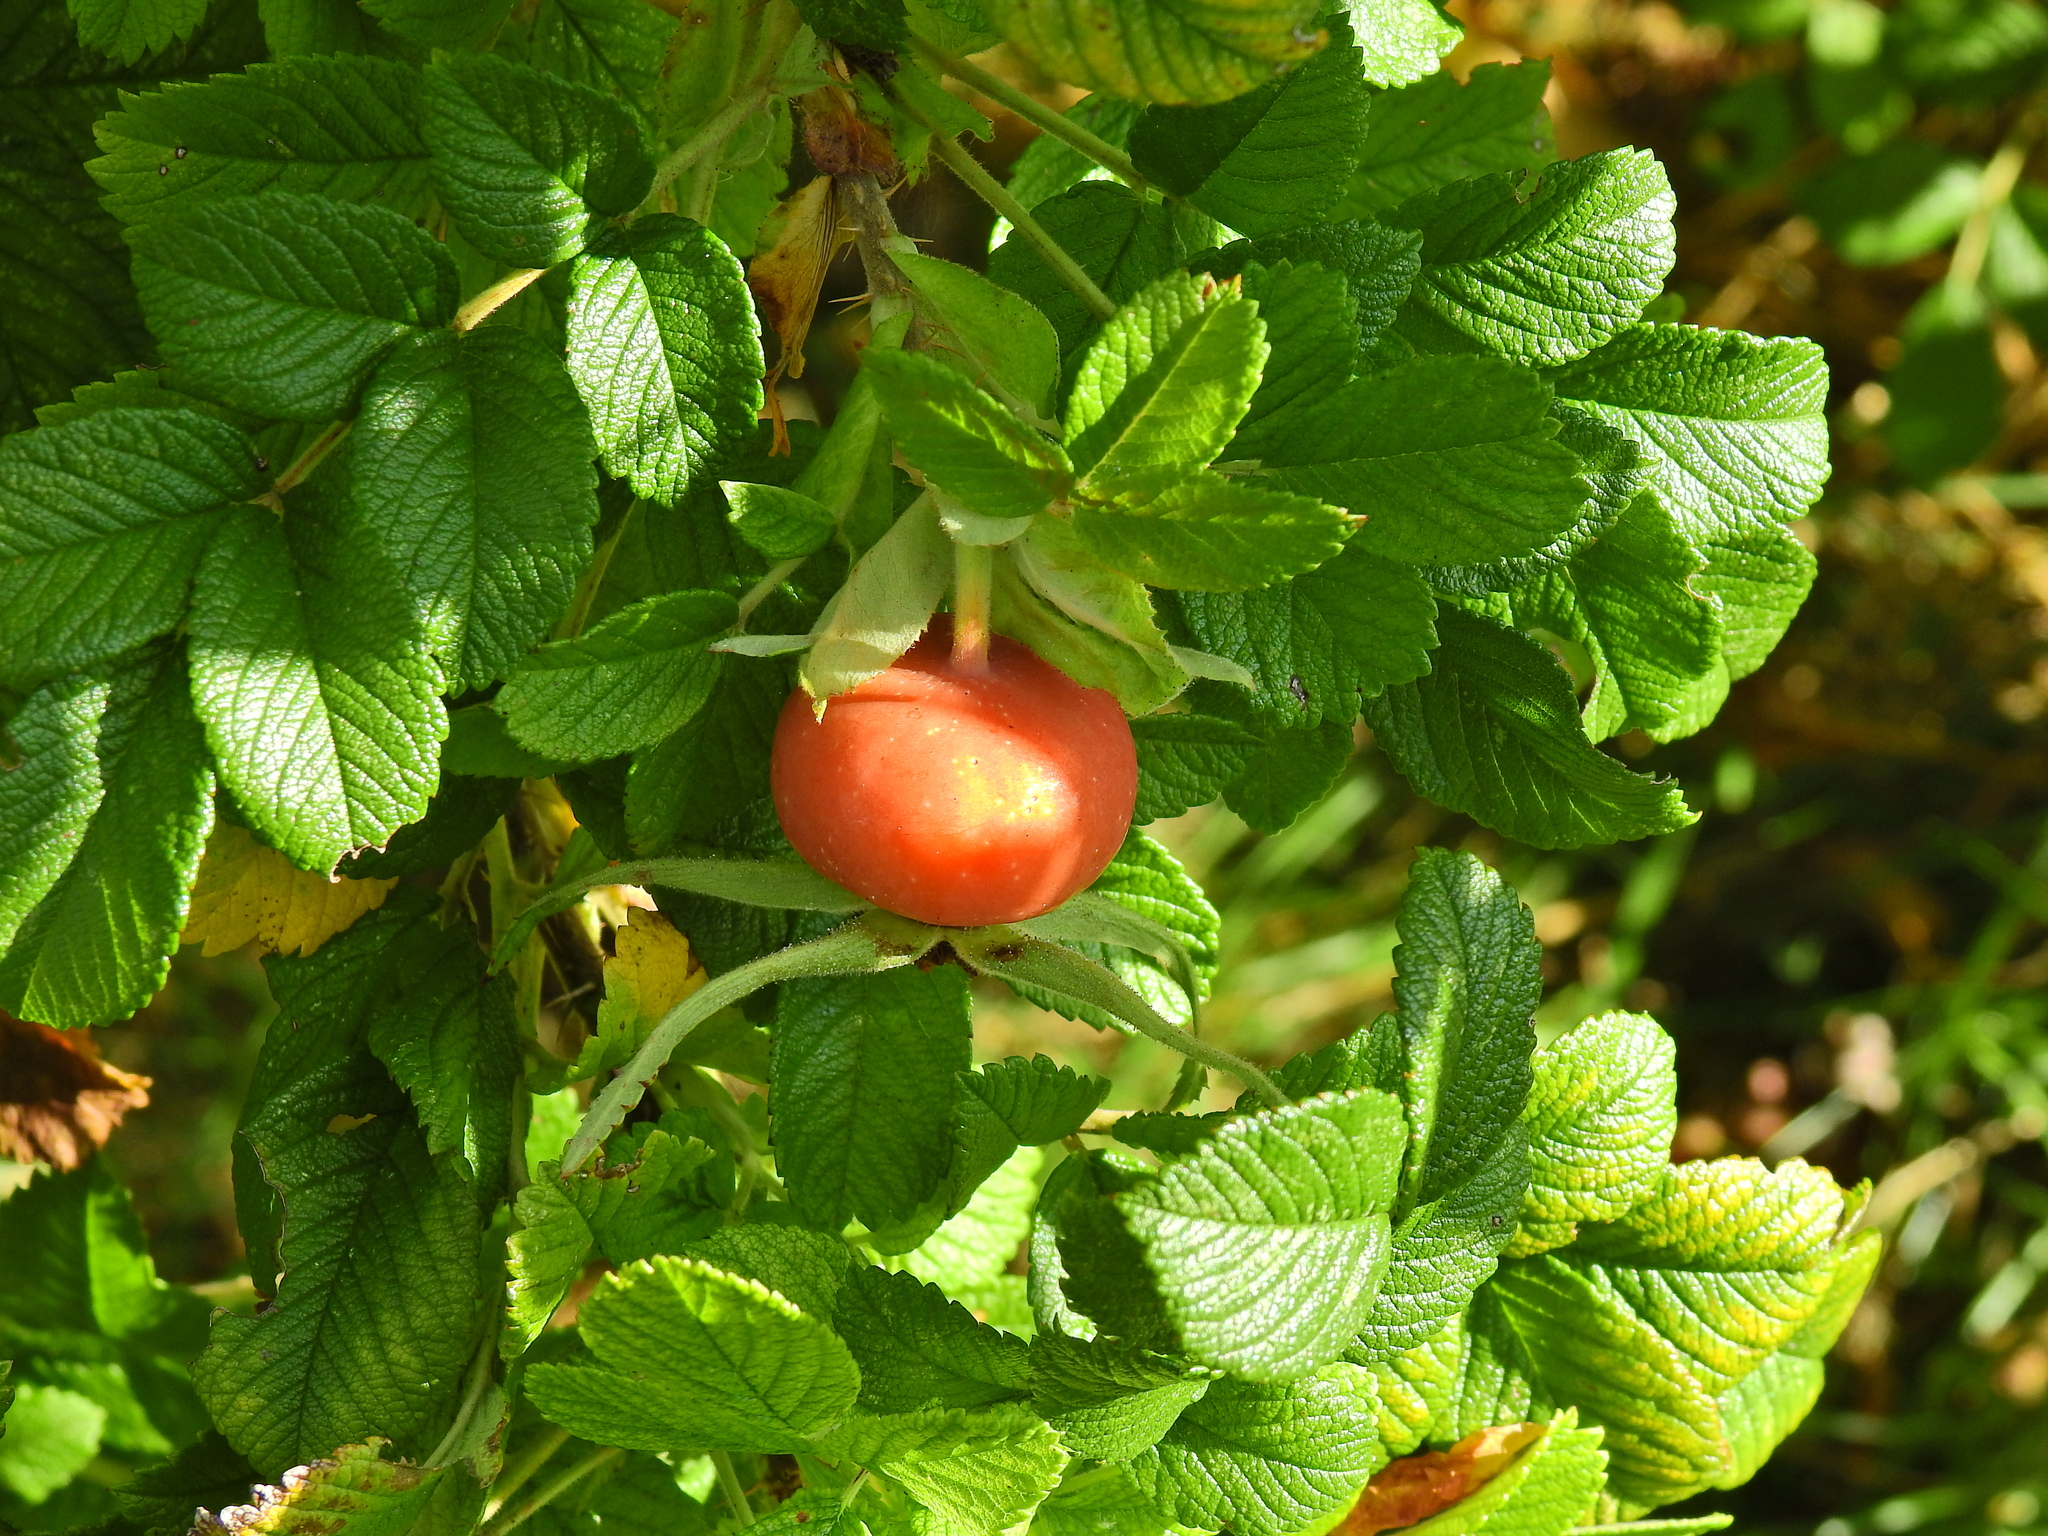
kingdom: Plantae
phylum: Tracheophyta
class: Magnoliopsida
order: Rosales
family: Rosaceae
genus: Rosa
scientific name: Rosa rugosa
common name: Japanese rose
